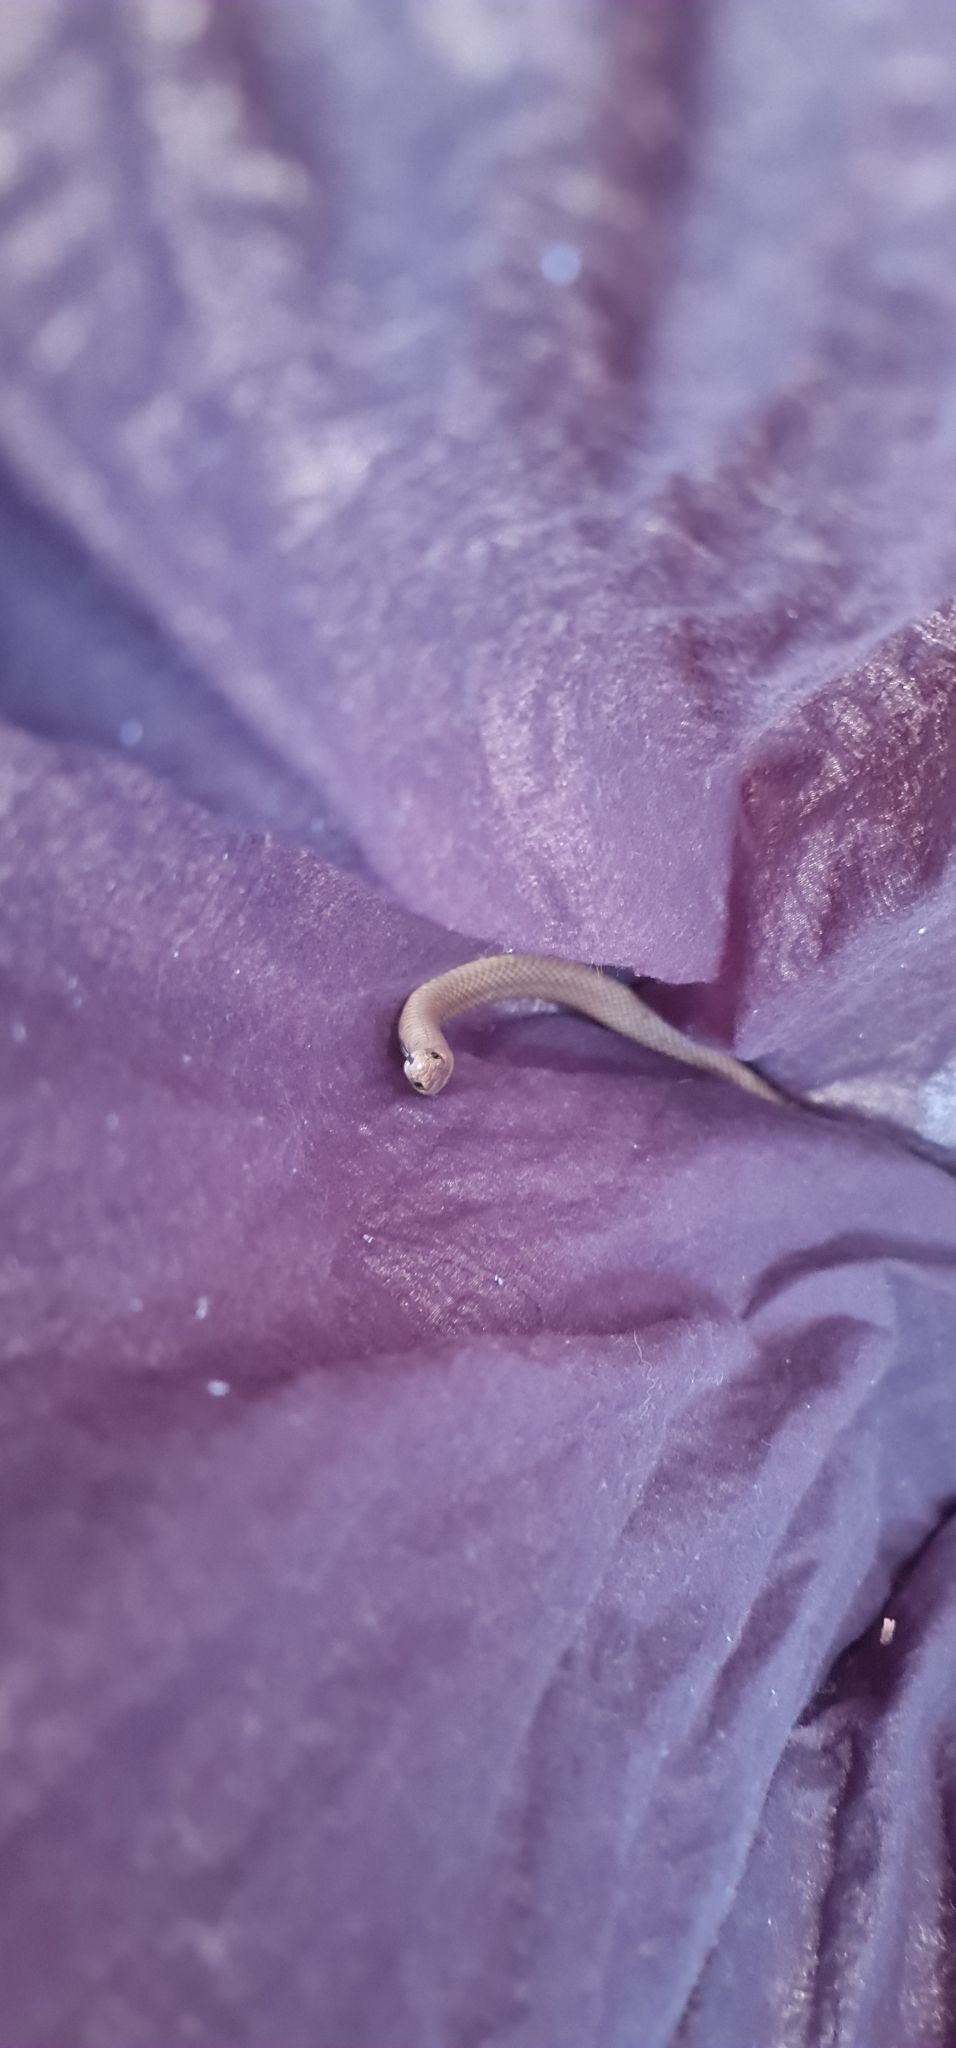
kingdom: Animalia
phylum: Chordata
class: Squamata
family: Elapidae
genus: Pseudonaja
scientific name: Pseudonaja textilis
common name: Eastern brown snake
